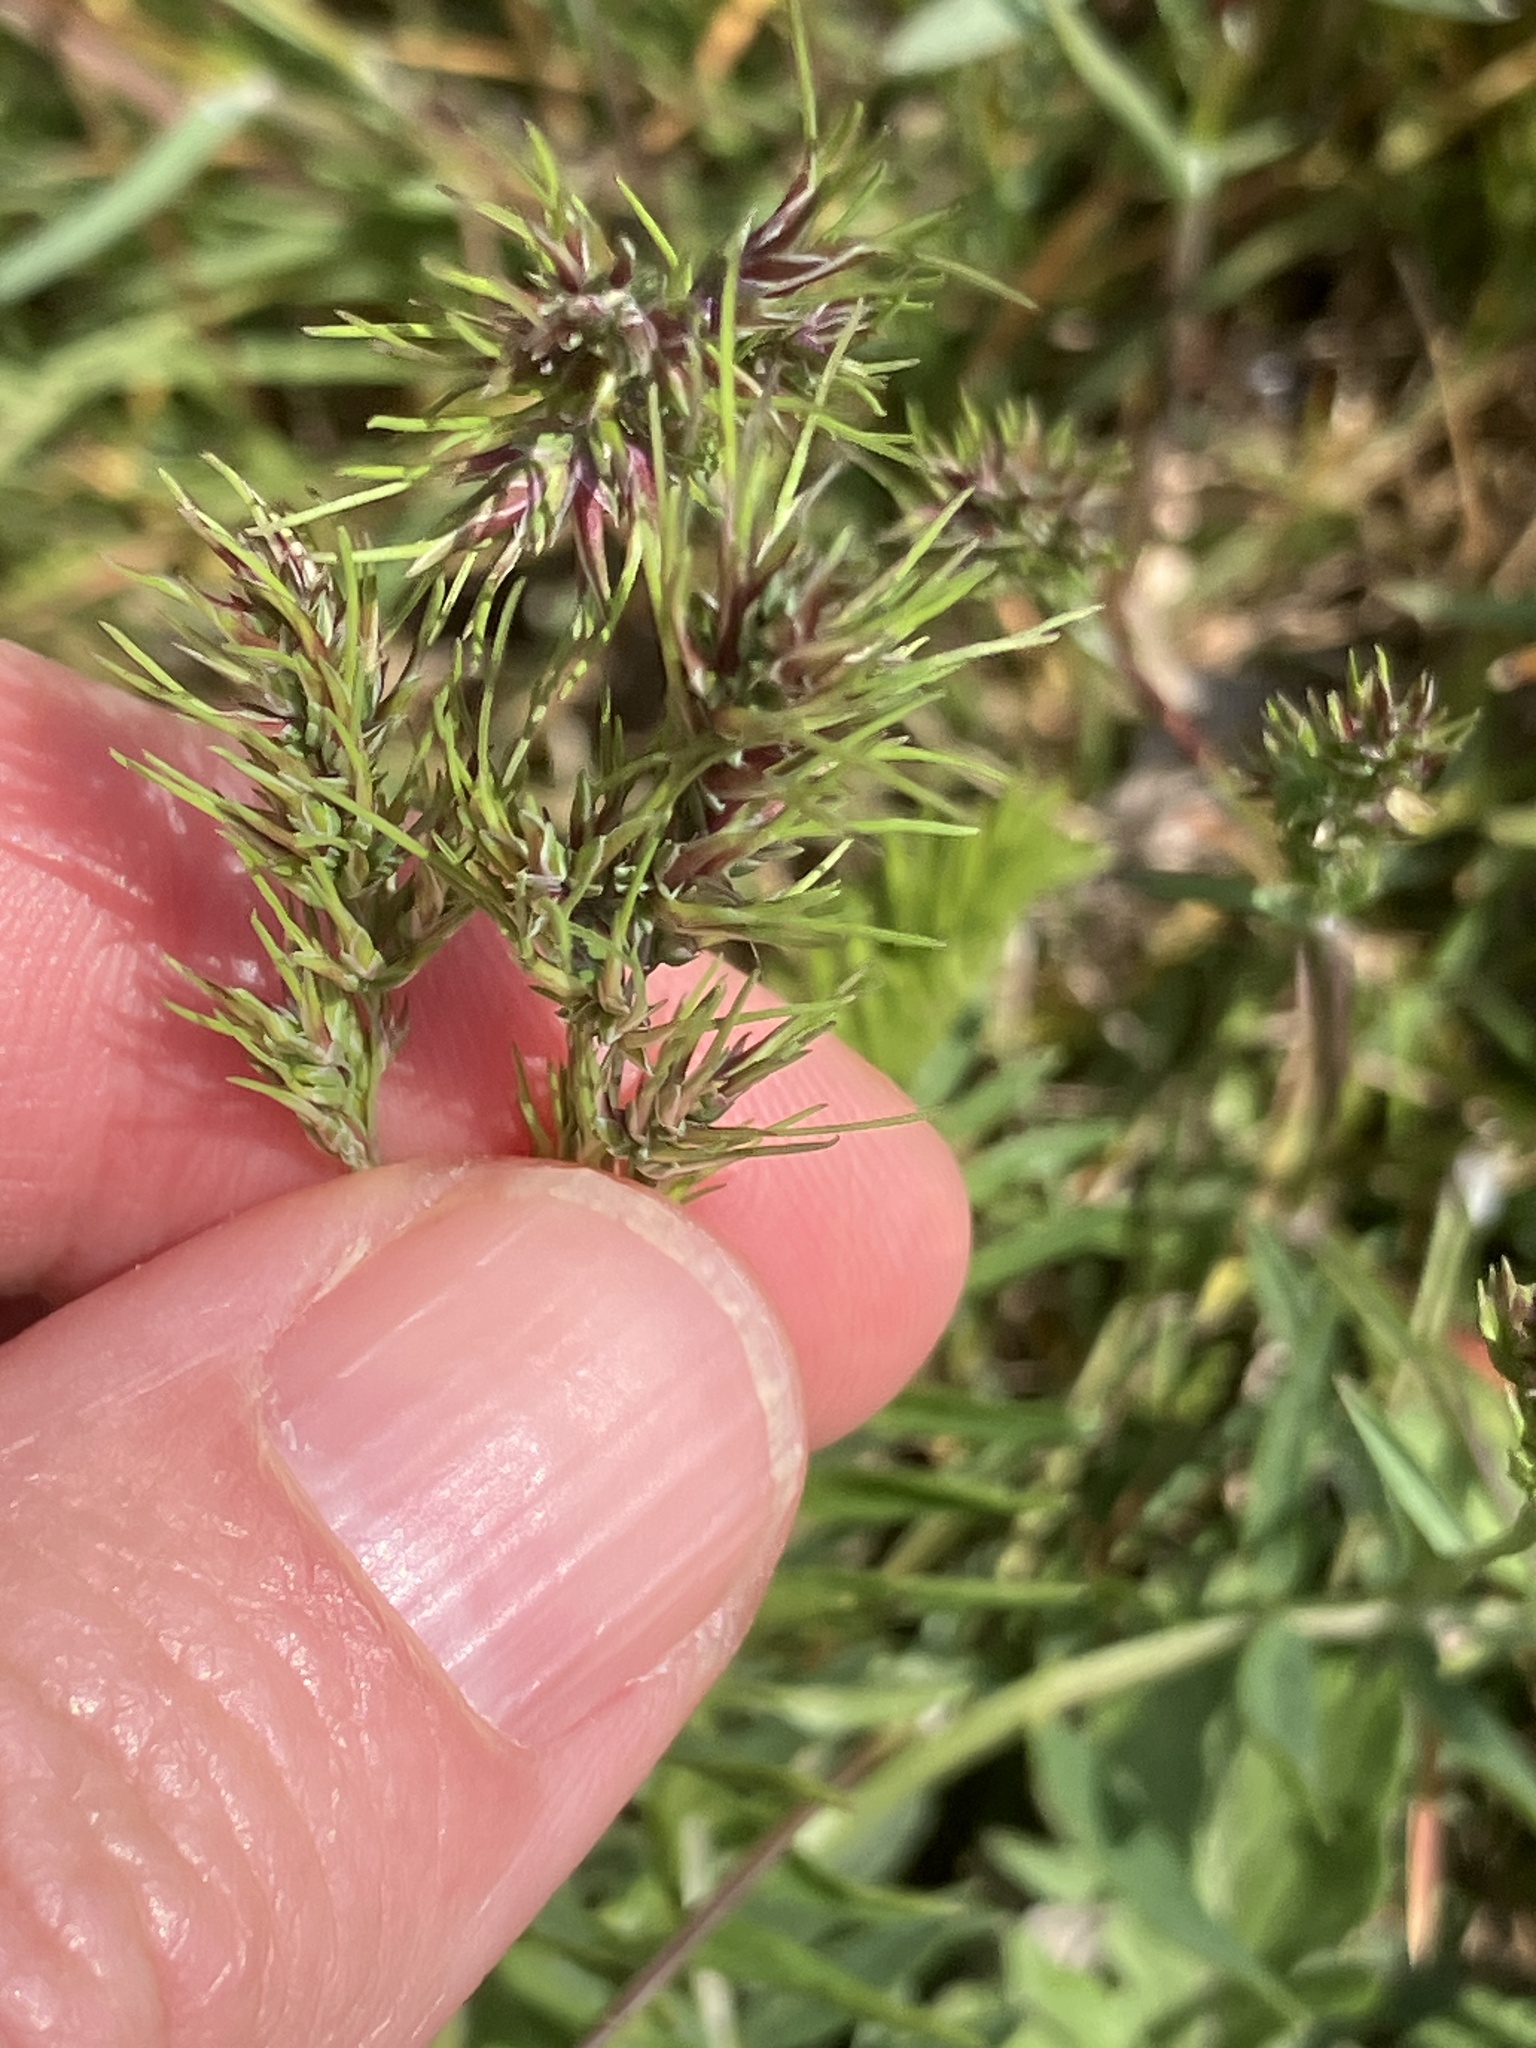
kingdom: Plantae
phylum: Tracheophyta
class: Liliopsida
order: Poales
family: Poaceae
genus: Poa
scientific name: Poa bulbosa
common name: Bulbous bluegrass
